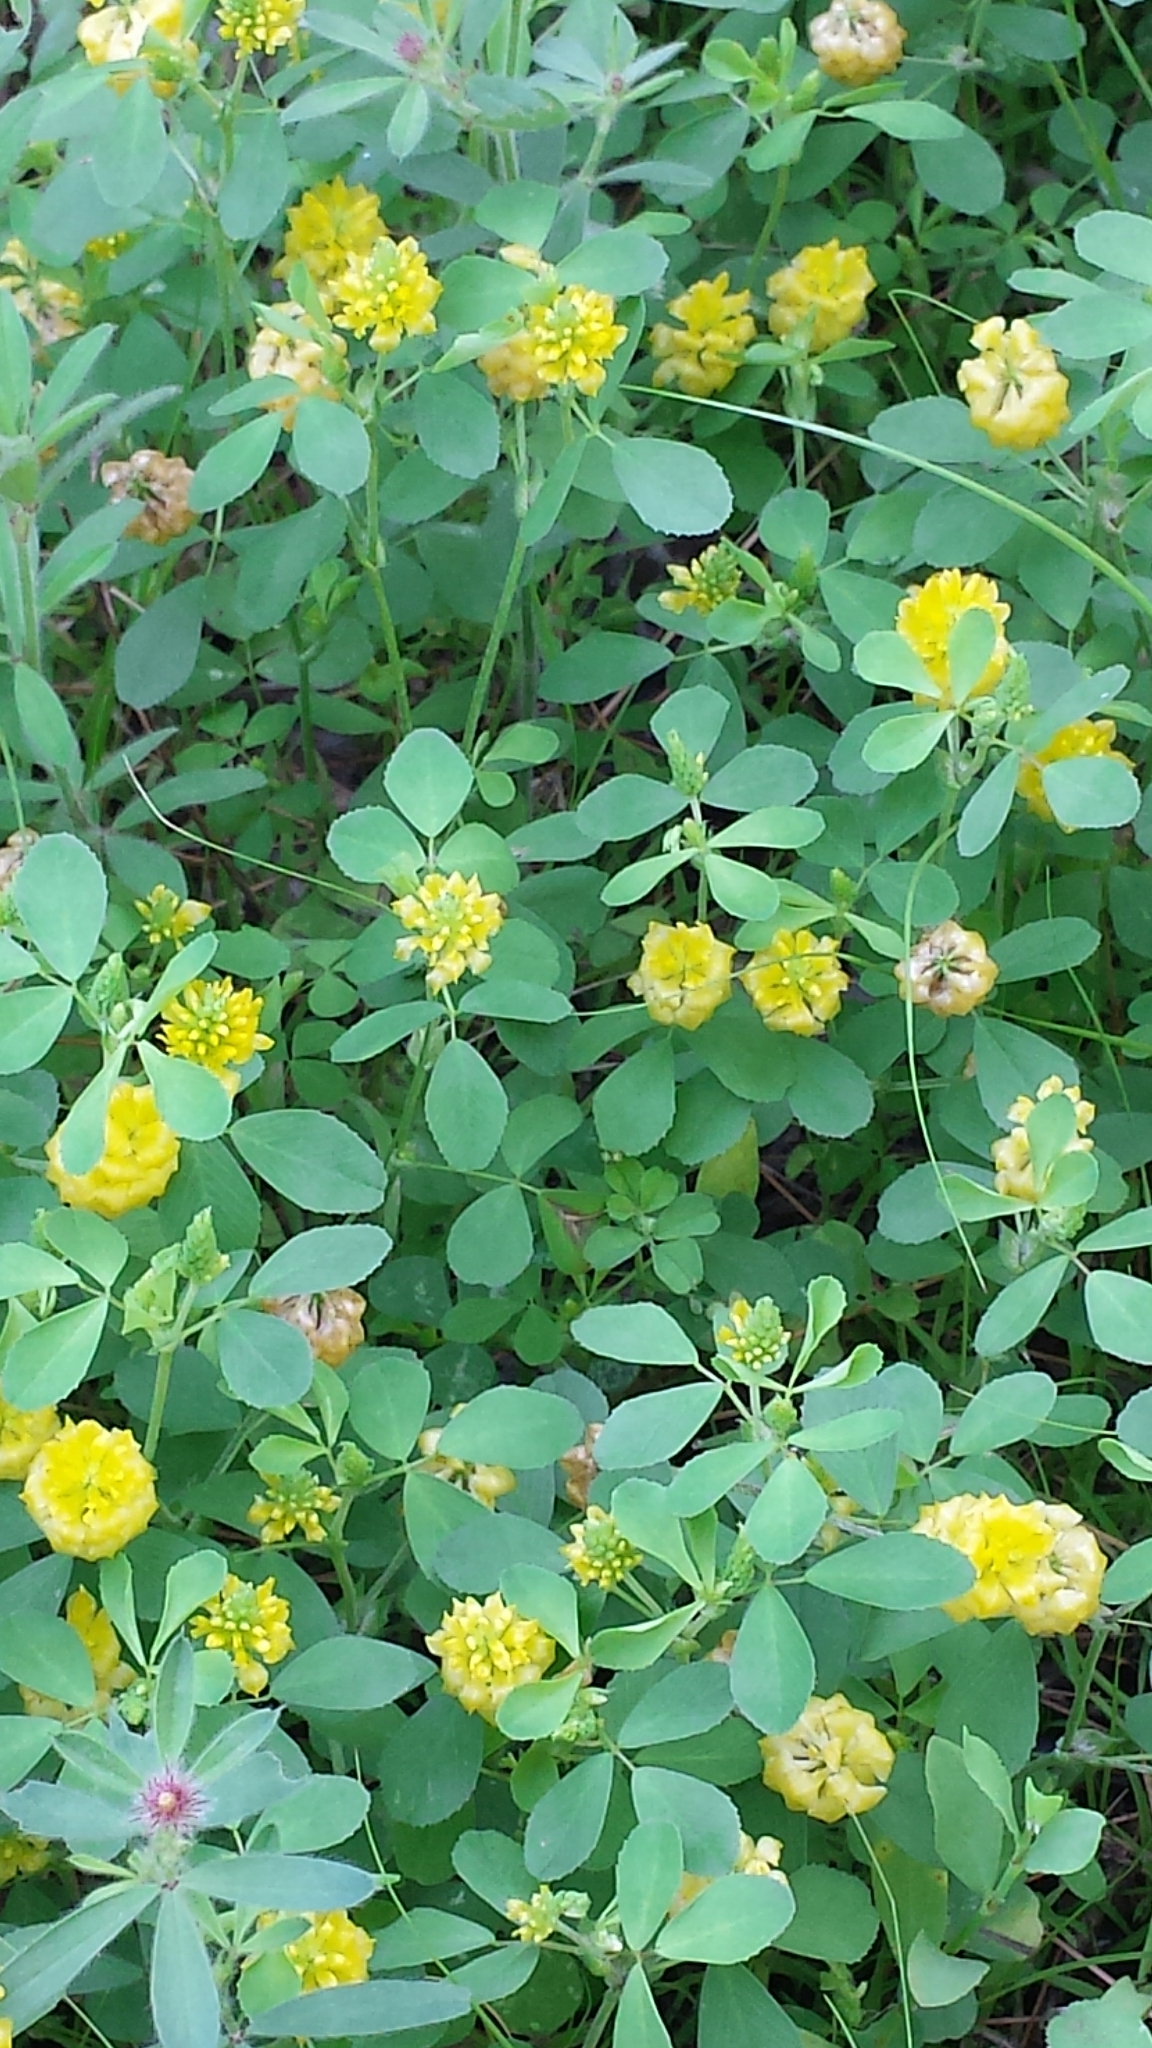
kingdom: Plantae
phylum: Tracheophyta
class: Magnoliopsida
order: Fabales
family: Fabaceae
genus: Trifolium
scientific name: Trifolium campestre
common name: Field clover
